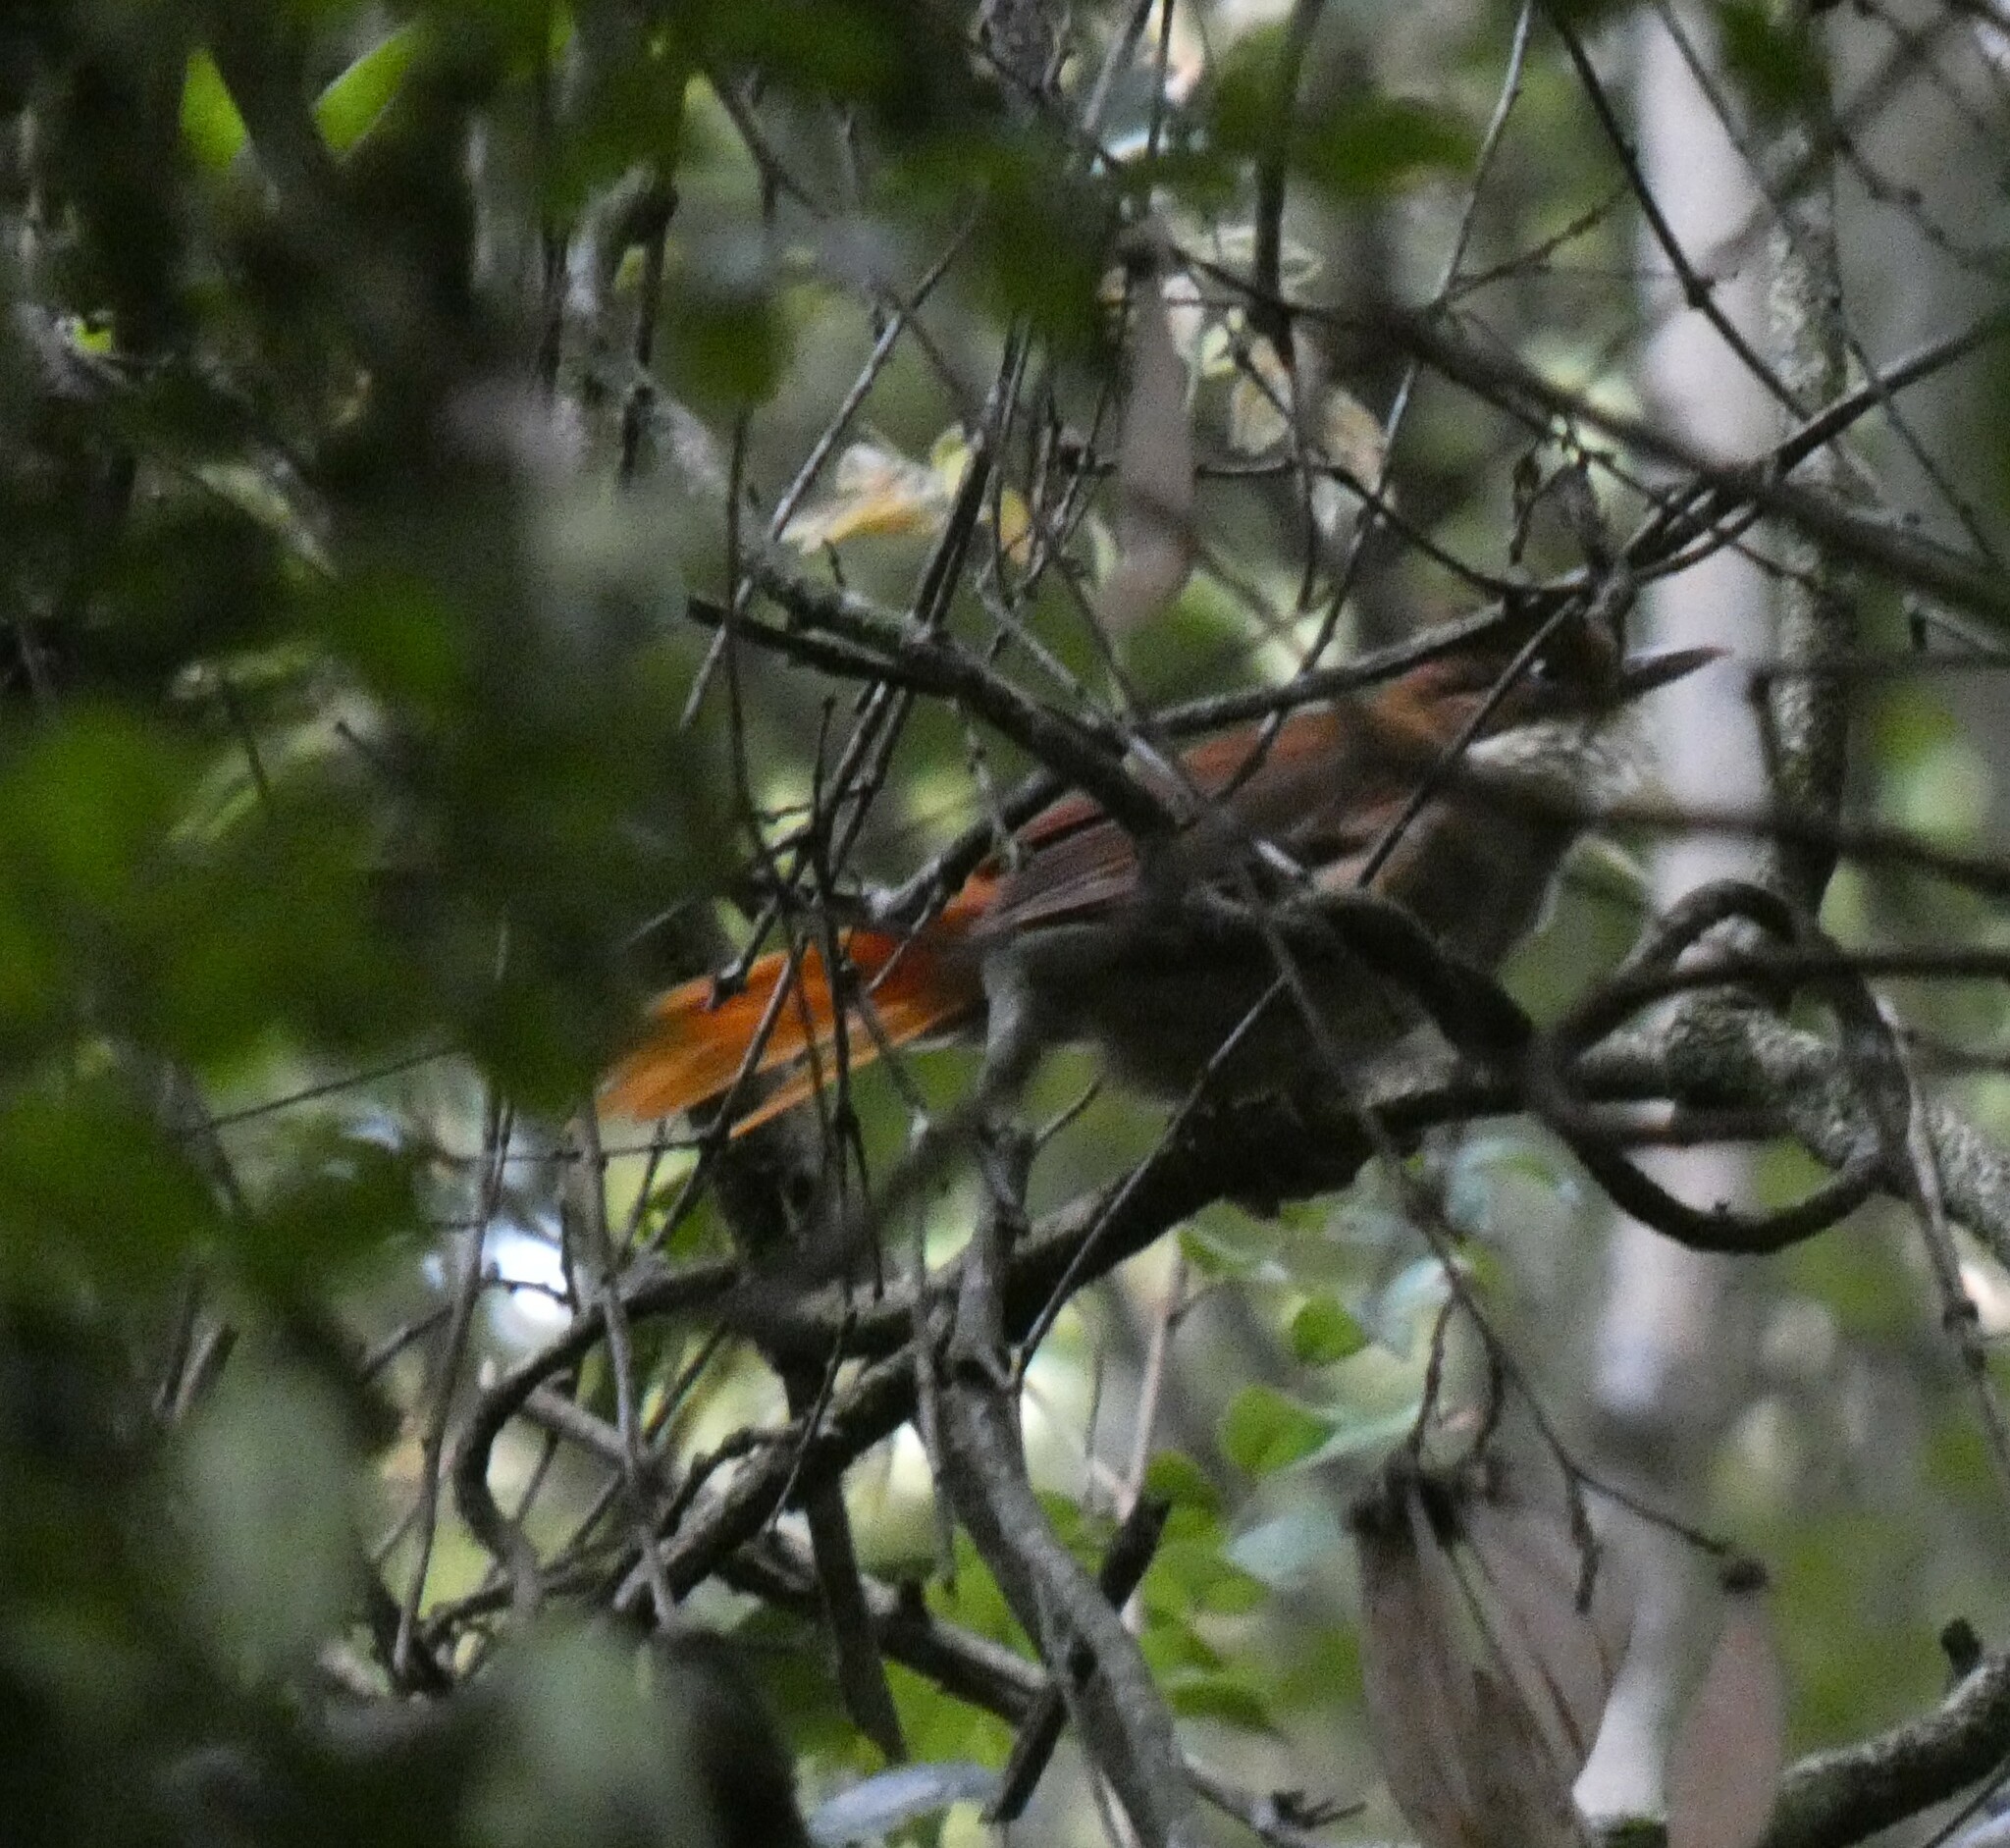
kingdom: Animalia
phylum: Chordata
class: Aves
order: Passeriformes
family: Furnariidae
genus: Automolus
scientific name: Automolus leucophthalmus
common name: White-eyed foliage-gleaner
